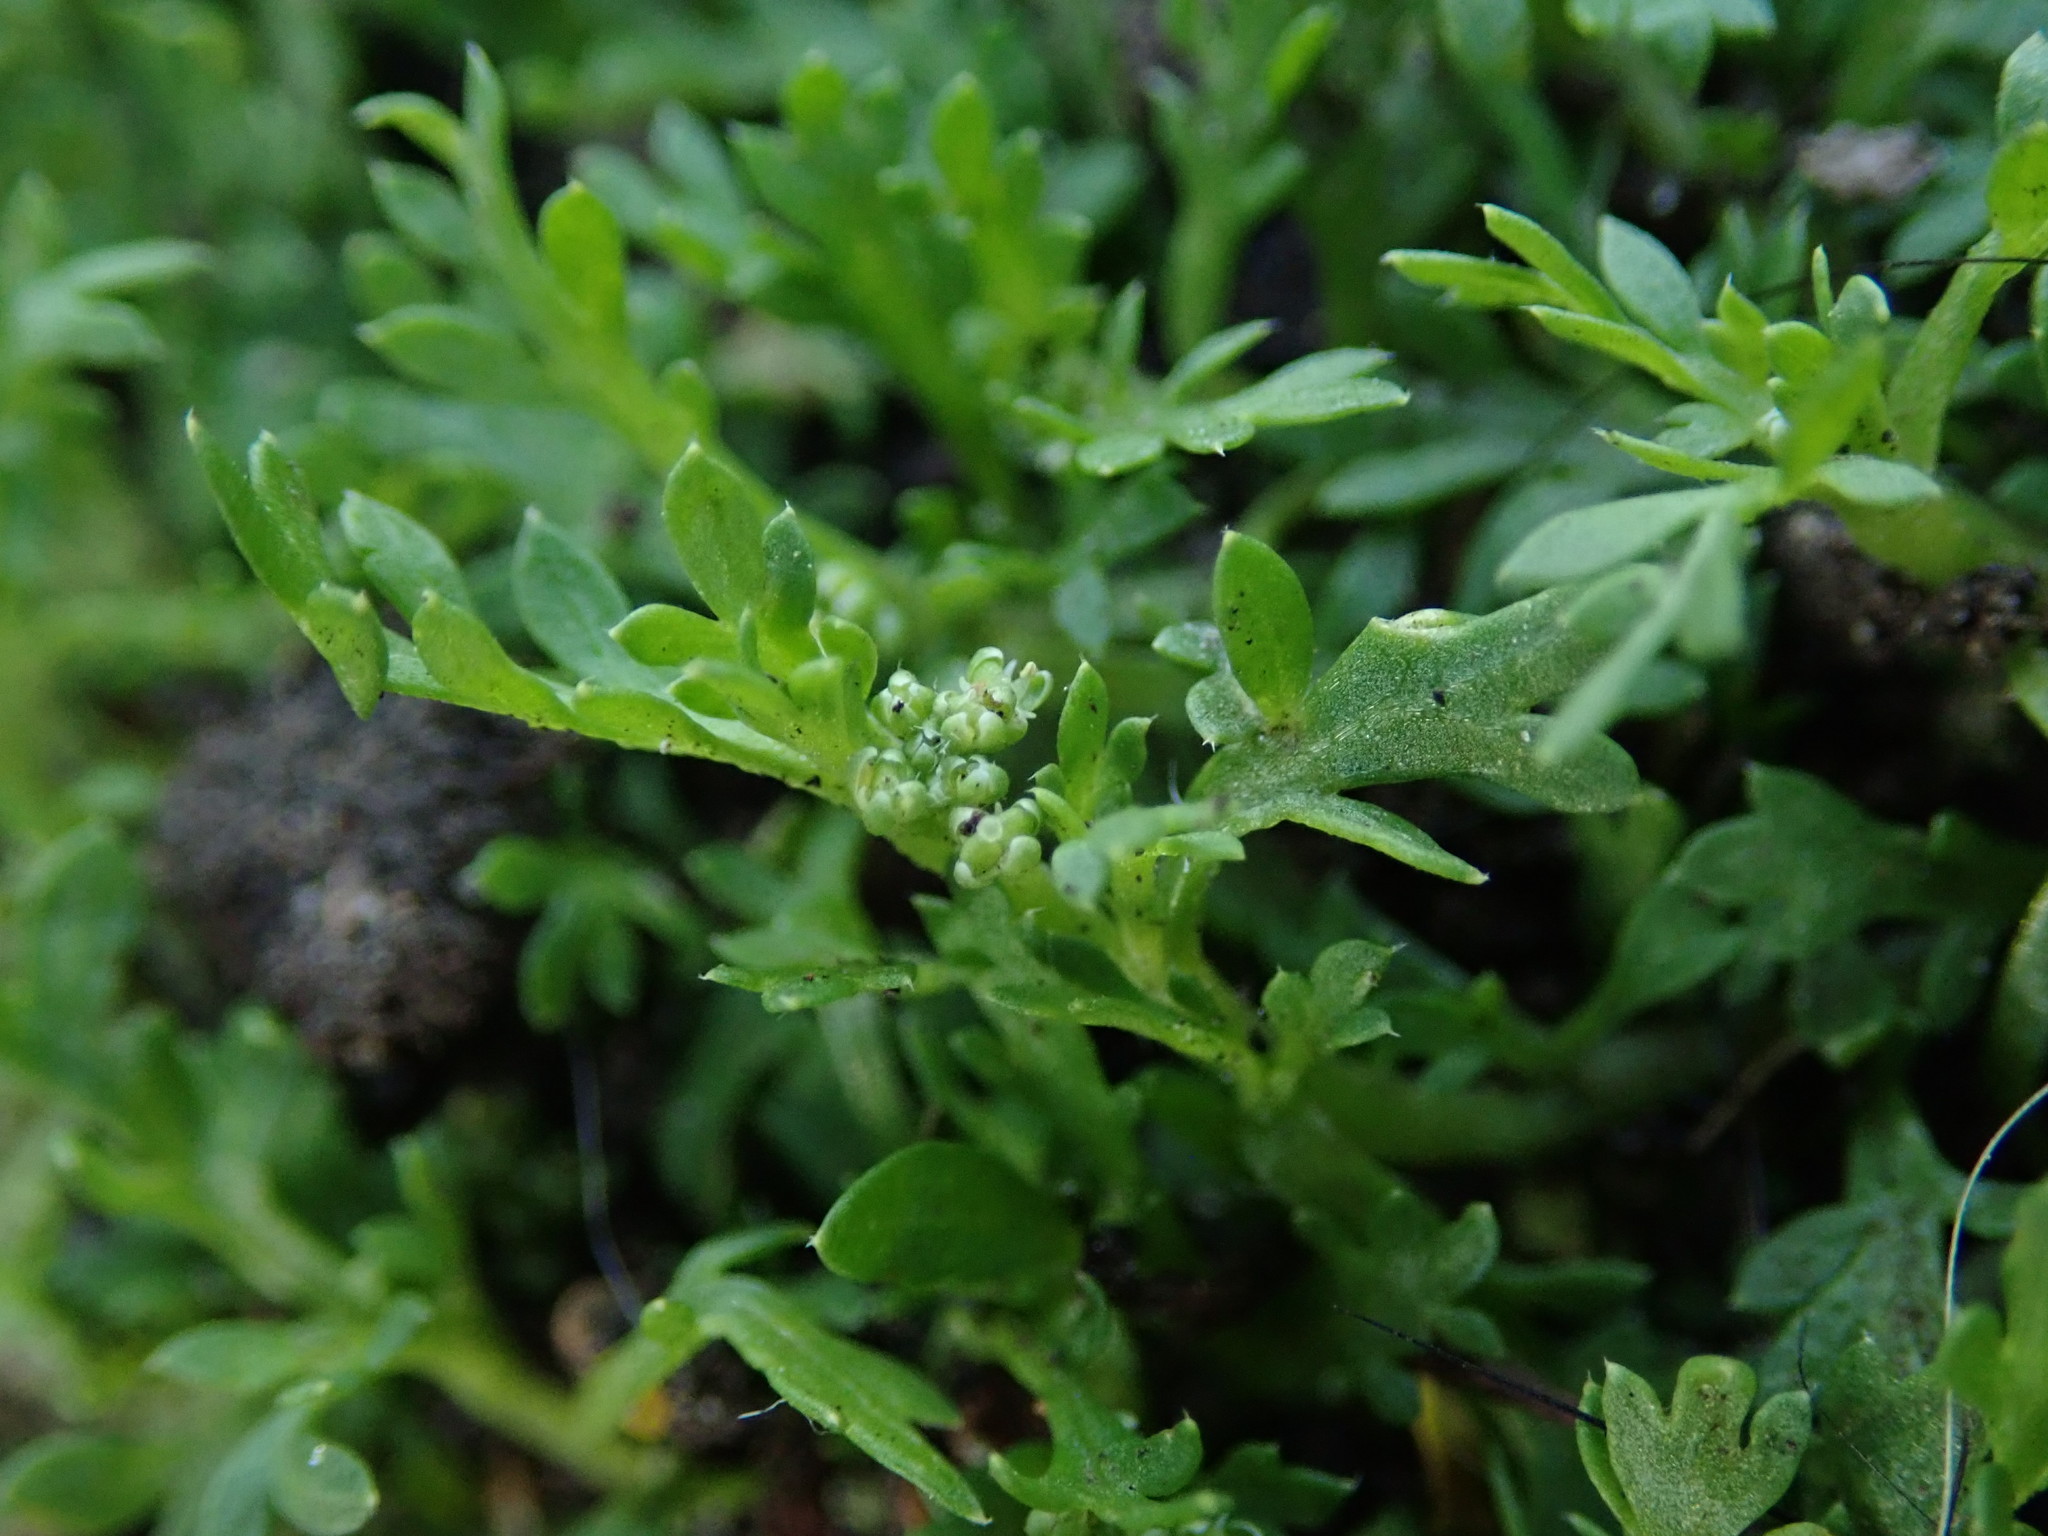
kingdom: Plantae
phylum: Tracheophyta
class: Magnoliopsida
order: Brassicales
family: Brassicaceae
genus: Lepidium
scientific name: Lepidium didymum
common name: Lesser swinecress
